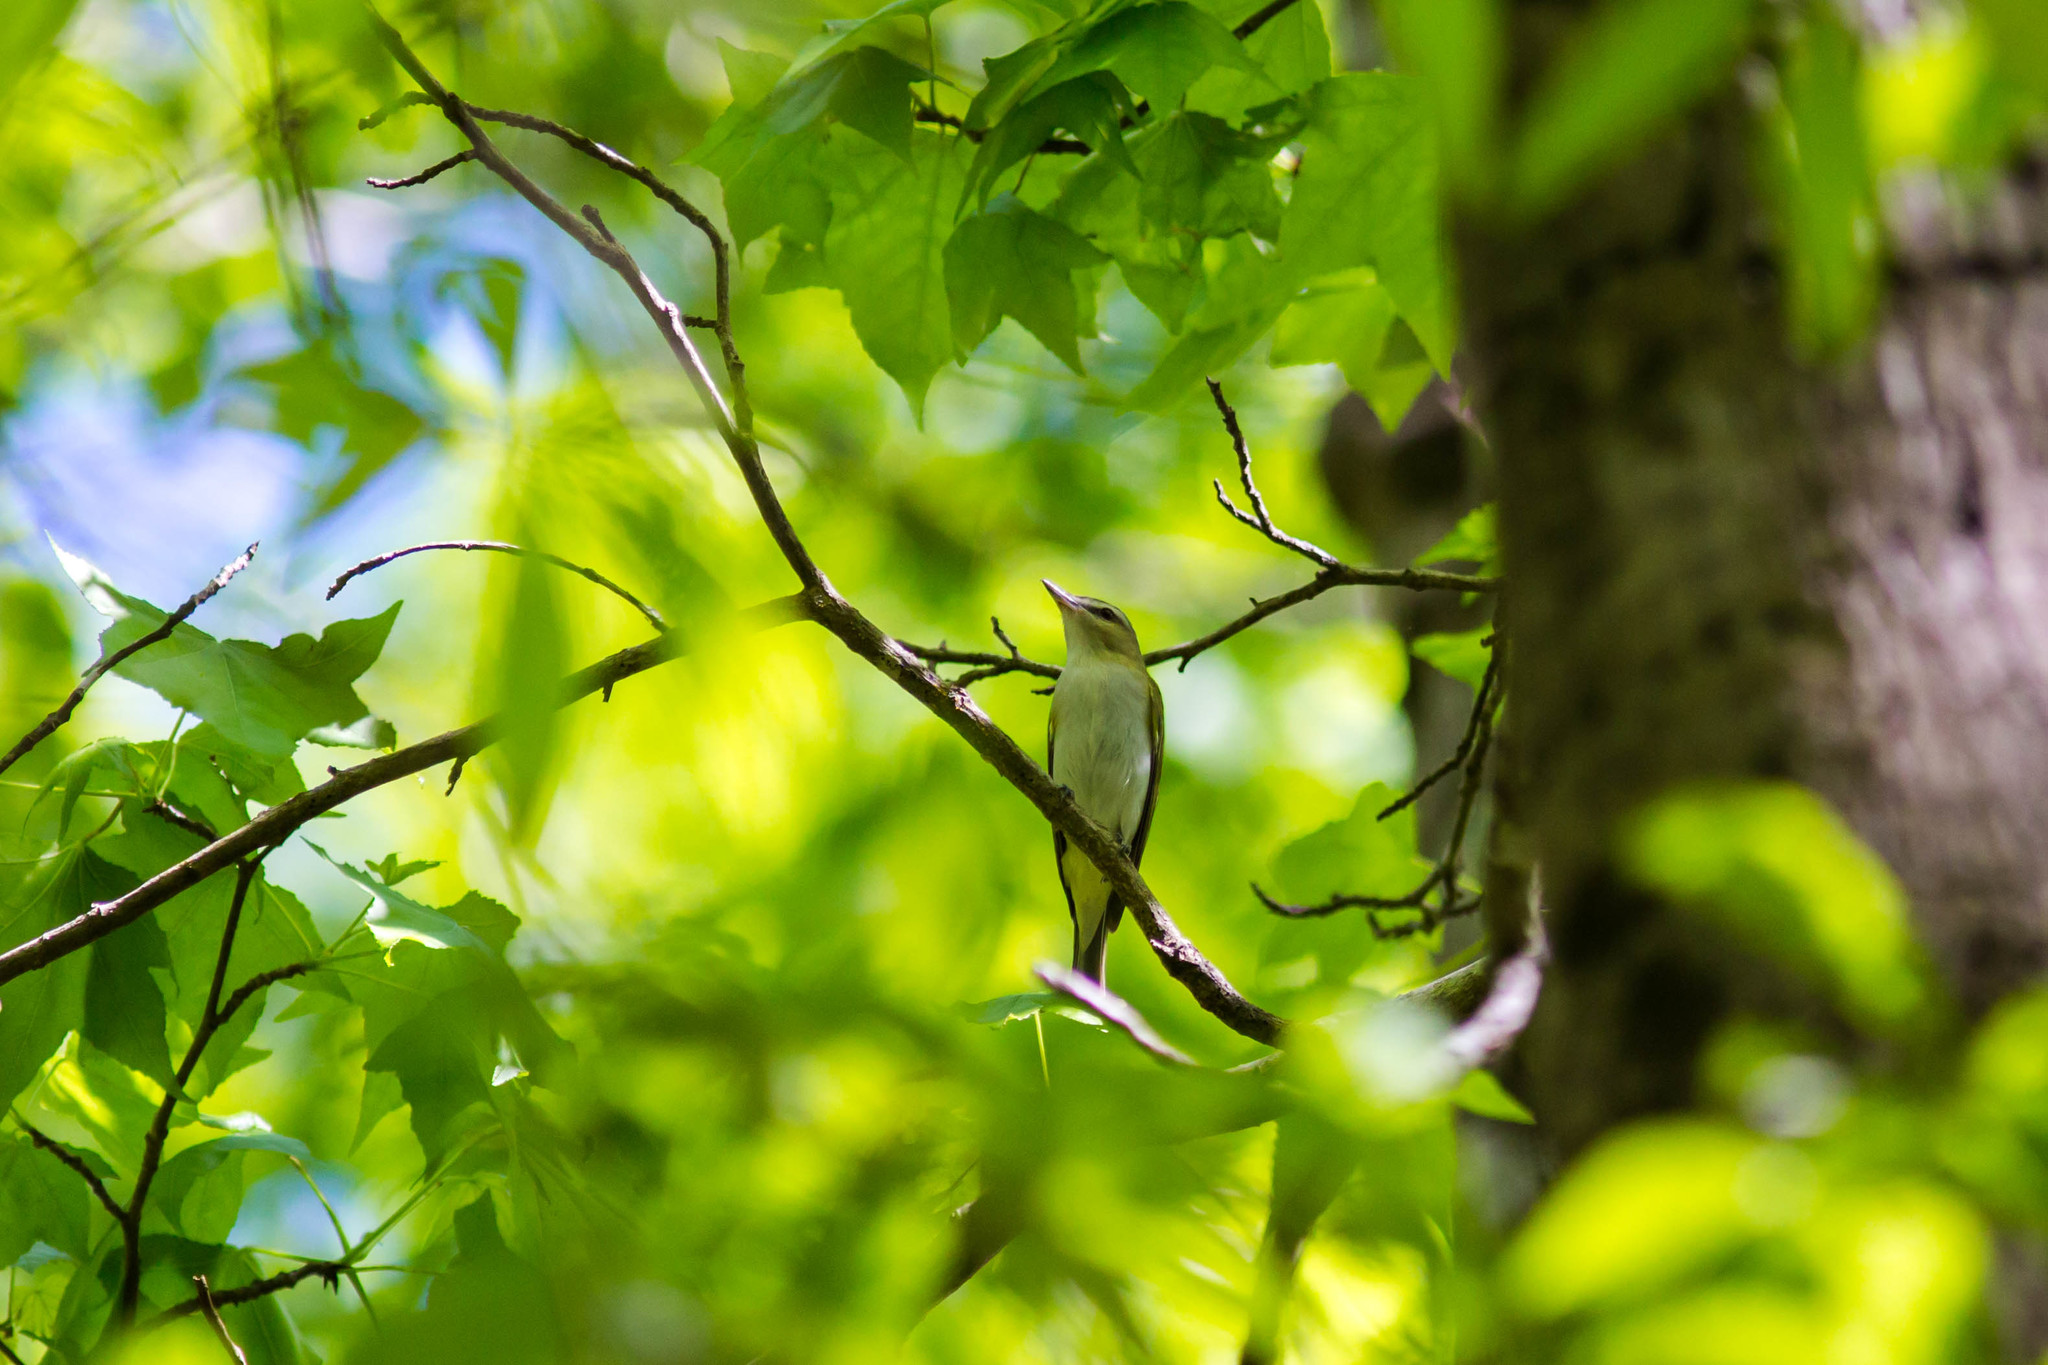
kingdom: Animalia
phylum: Chordata
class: Aves
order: Passeriformes
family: Vireonidae
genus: Vireo
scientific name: Vireo olivaceus
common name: Red-eyed vireo
